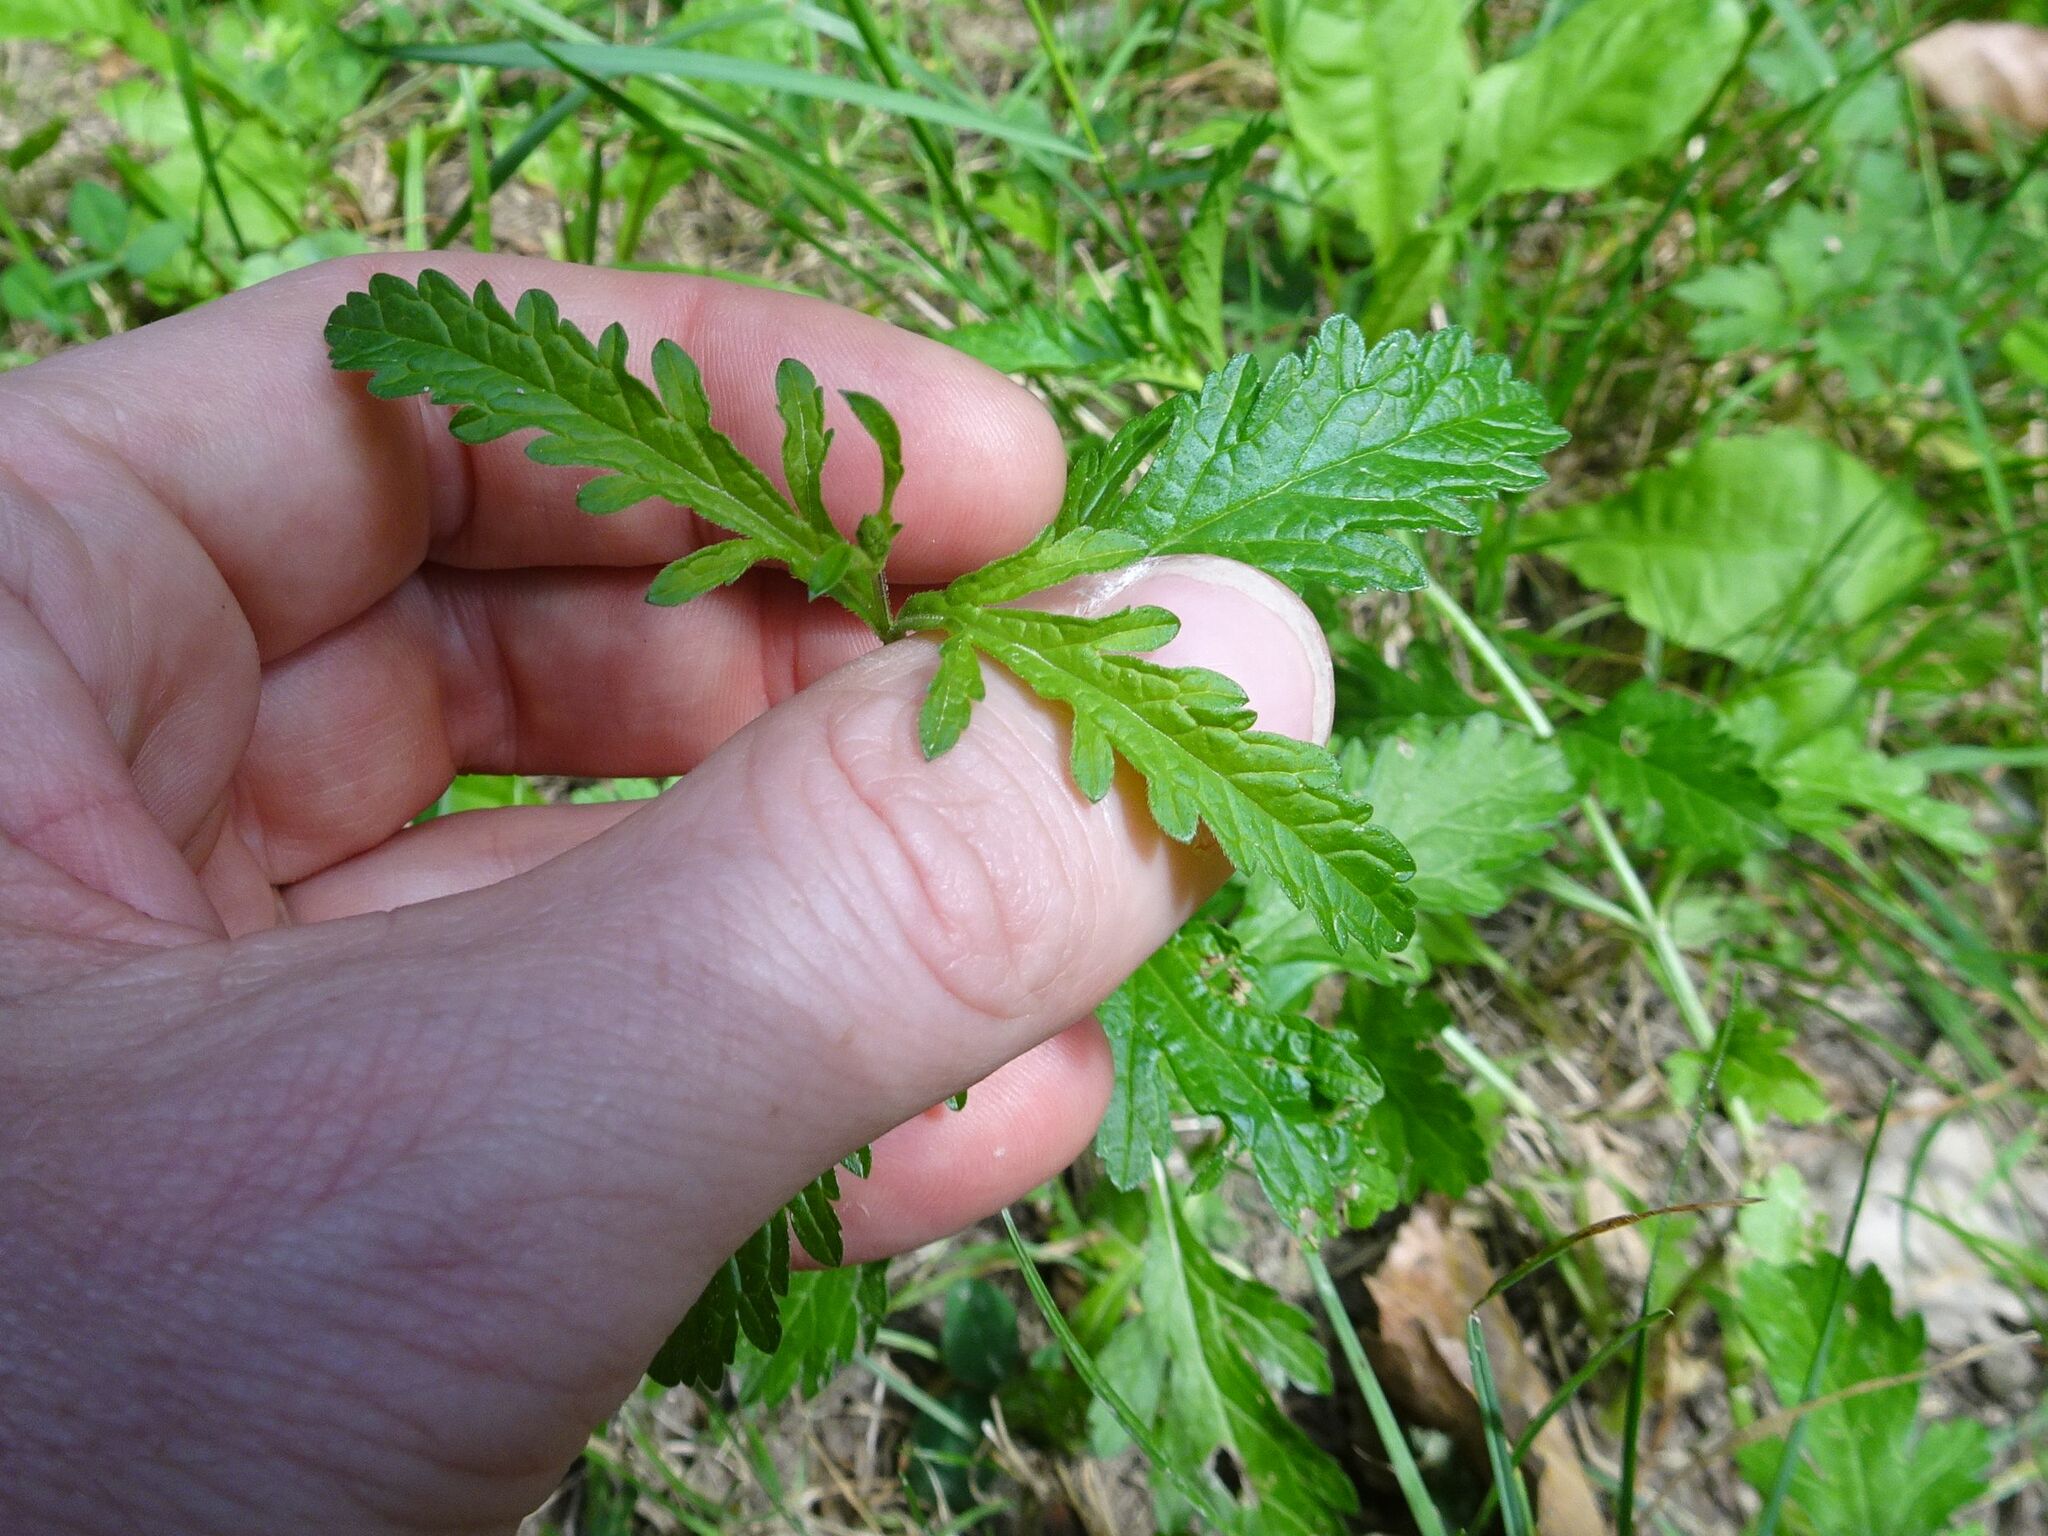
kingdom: Plantae
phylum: Tracheophyta
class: Magnoliopsida
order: Lamiales
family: Verbenaceae
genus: Verbena
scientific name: Verbena officinalis
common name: Vervain
